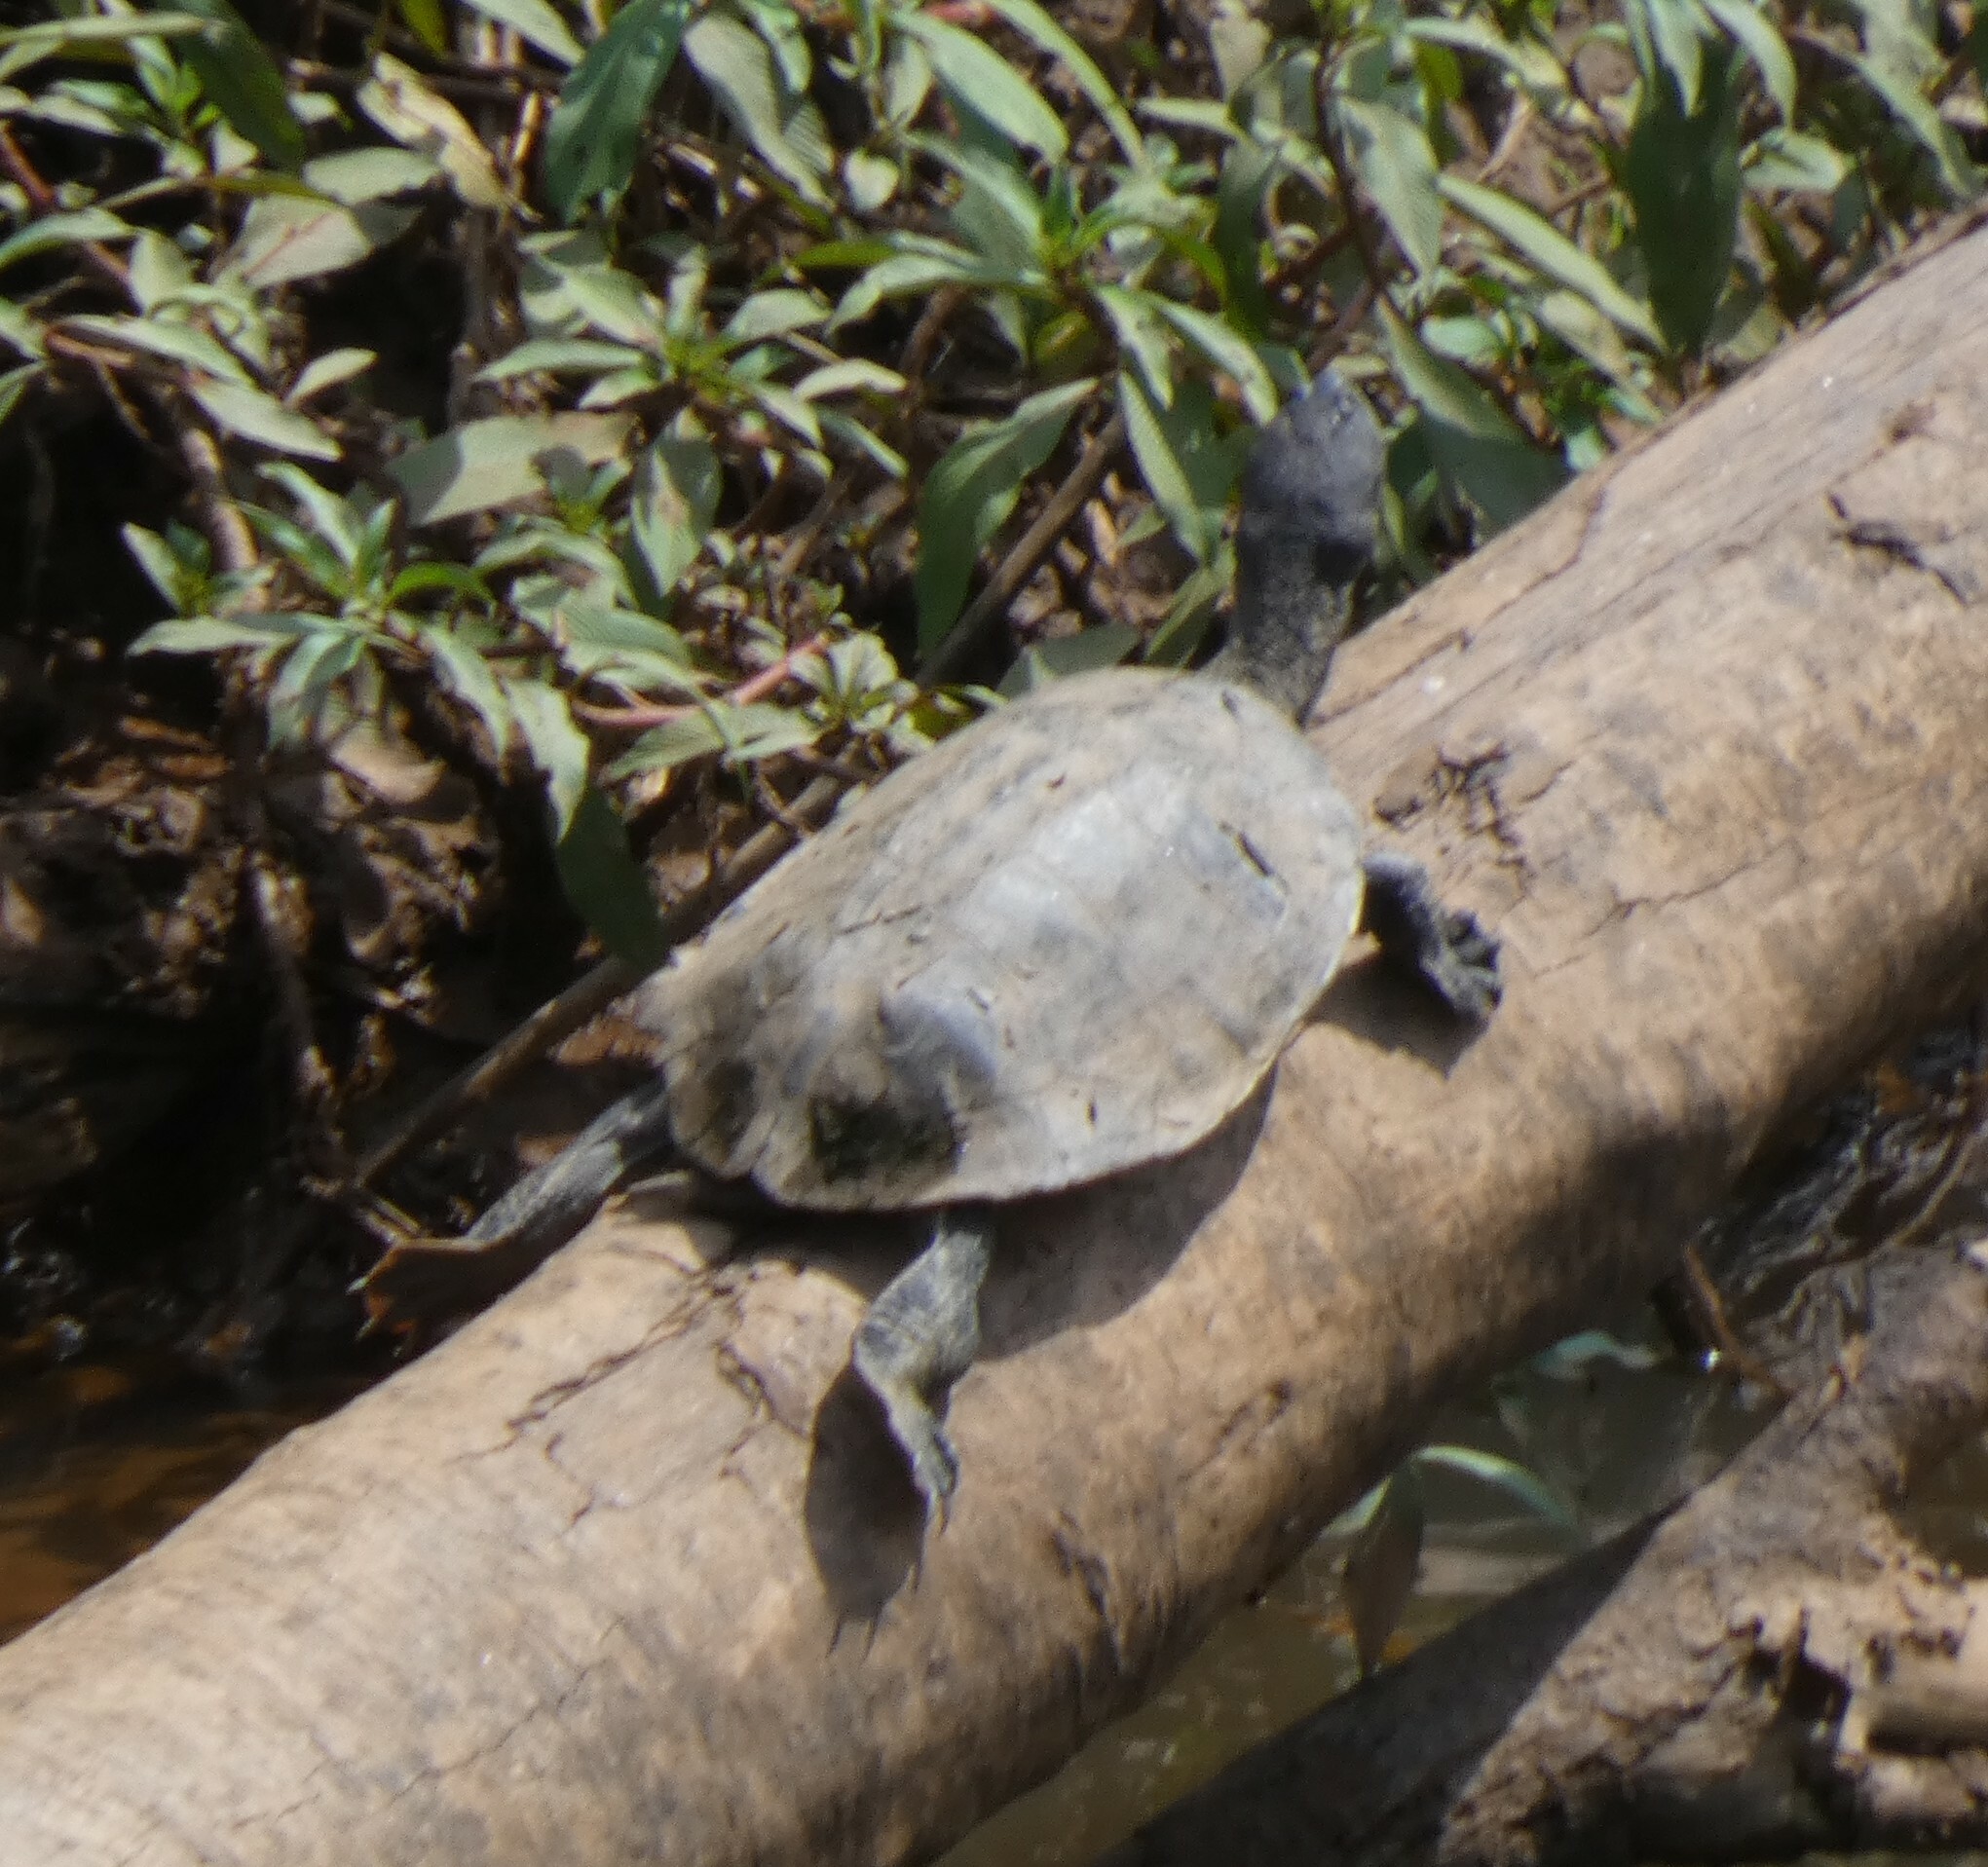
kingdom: Animalia
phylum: Chordata
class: Testudines
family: Chelidae
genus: Phrynops
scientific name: Phrynops geoffroanus
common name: Side-necked turtle of geoffroy
